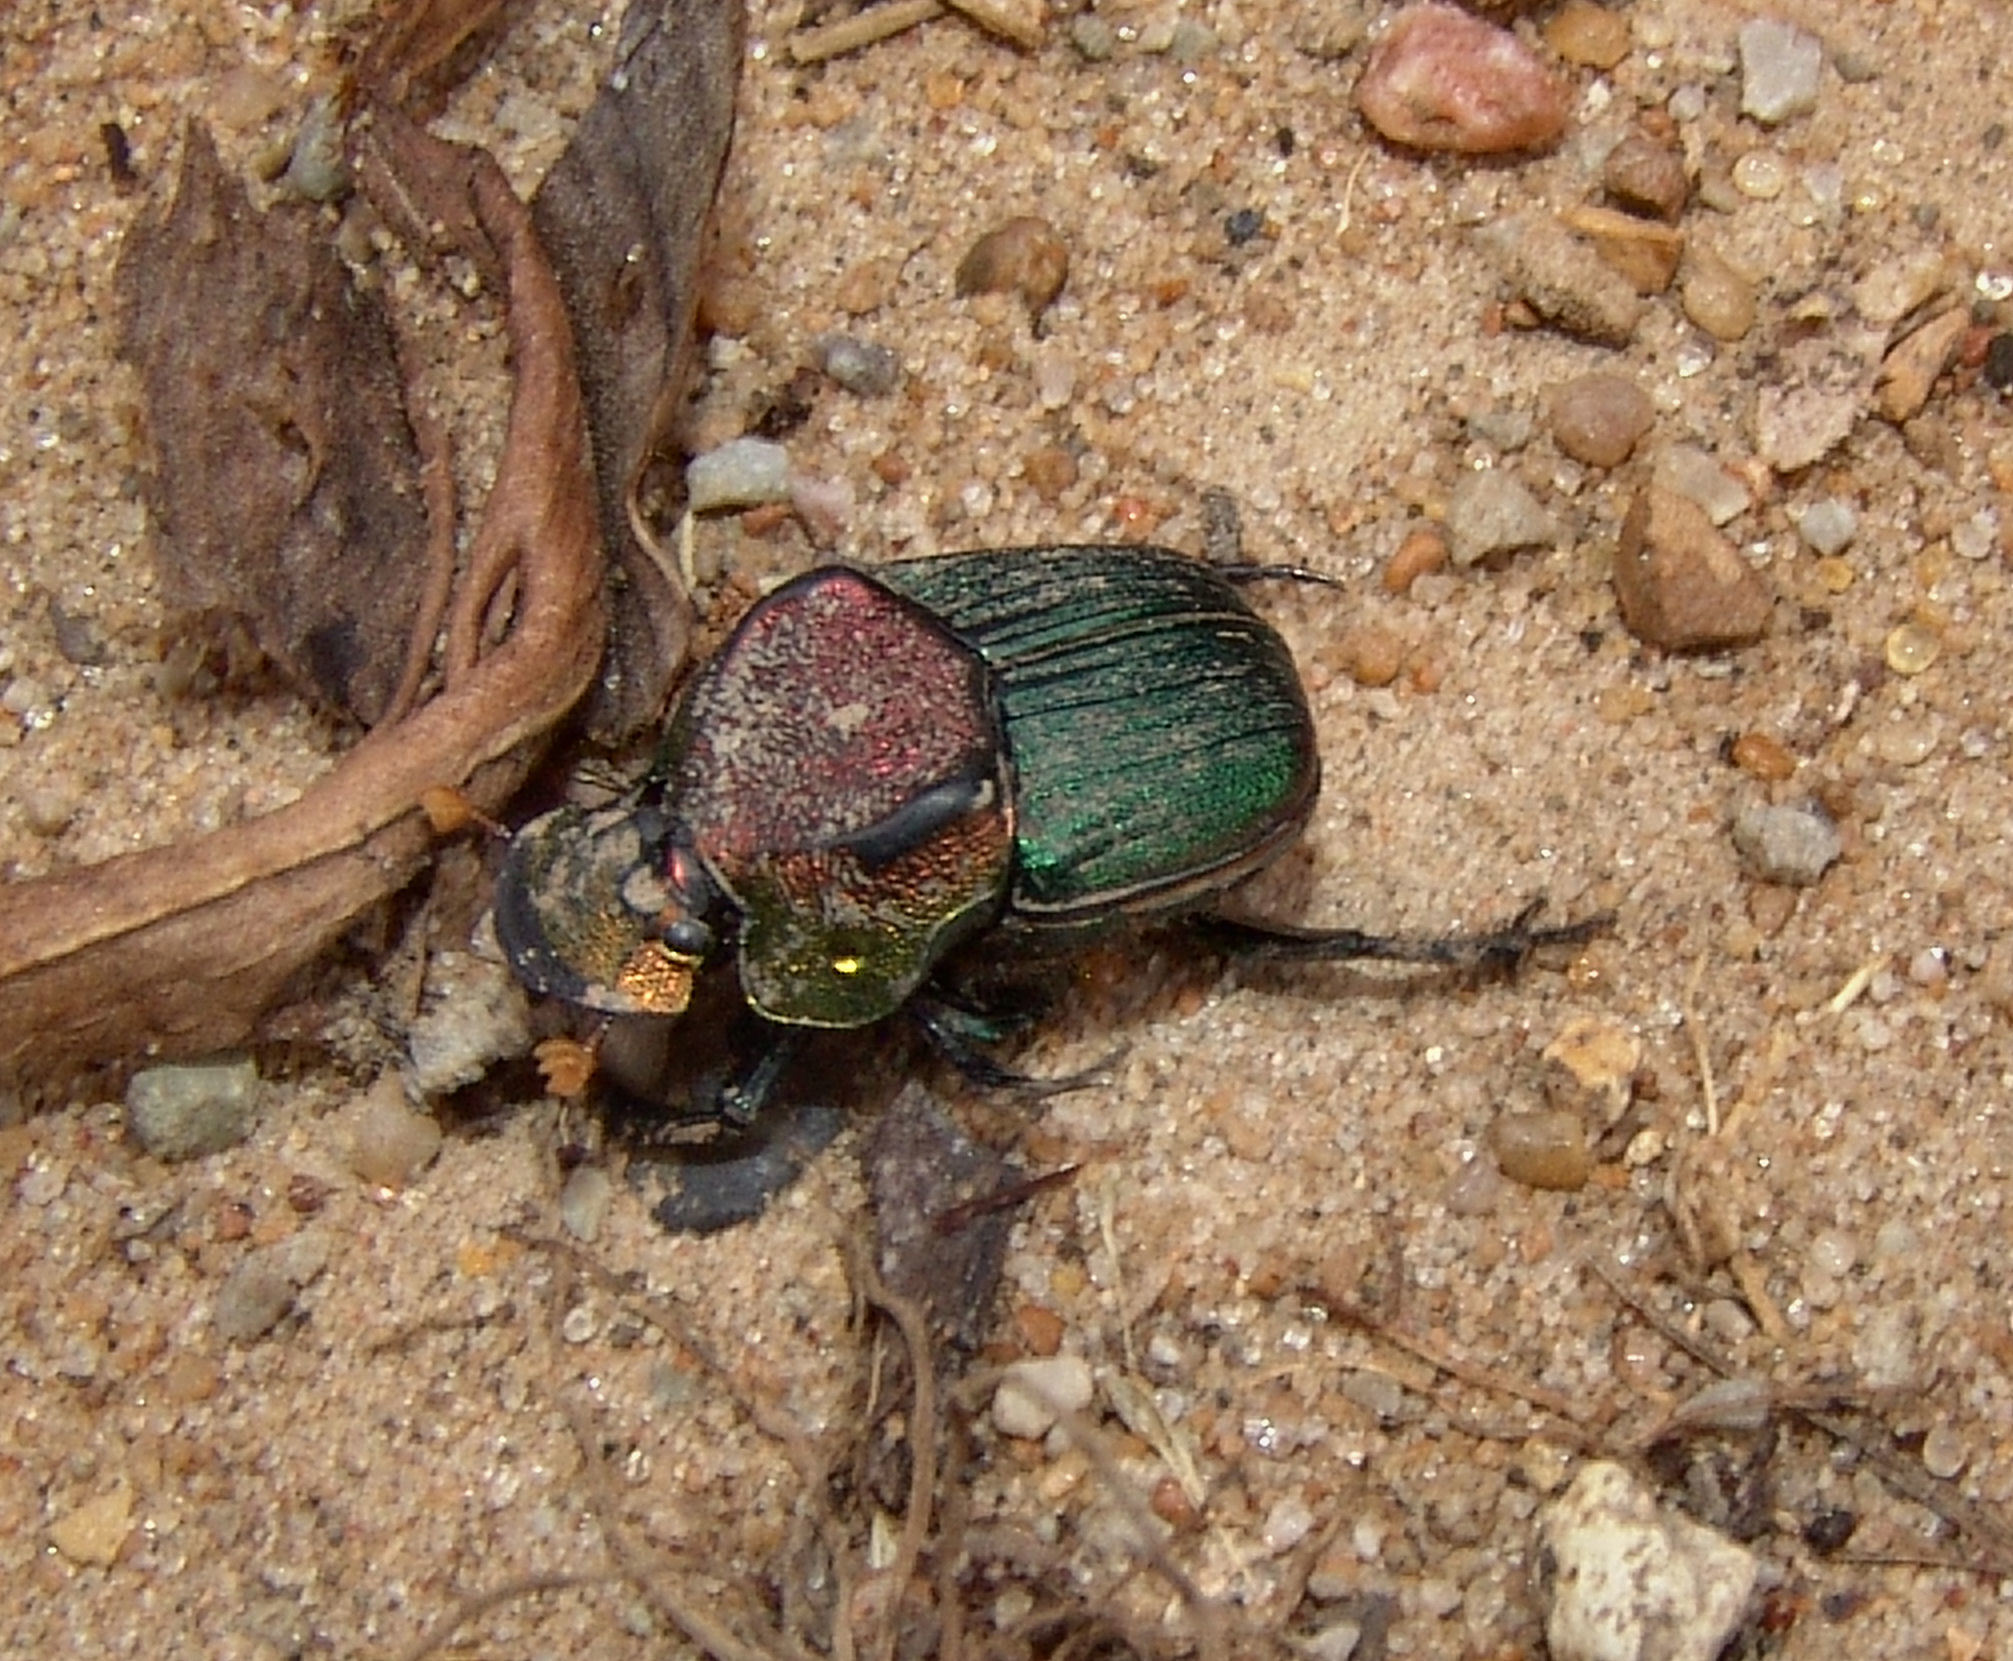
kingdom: Animalia
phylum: Arthropoda
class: Insecta
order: Coleoptera
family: Scarabaeidae
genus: Phanaeus
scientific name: Phanaeus vindex
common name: Rainbow scarab
